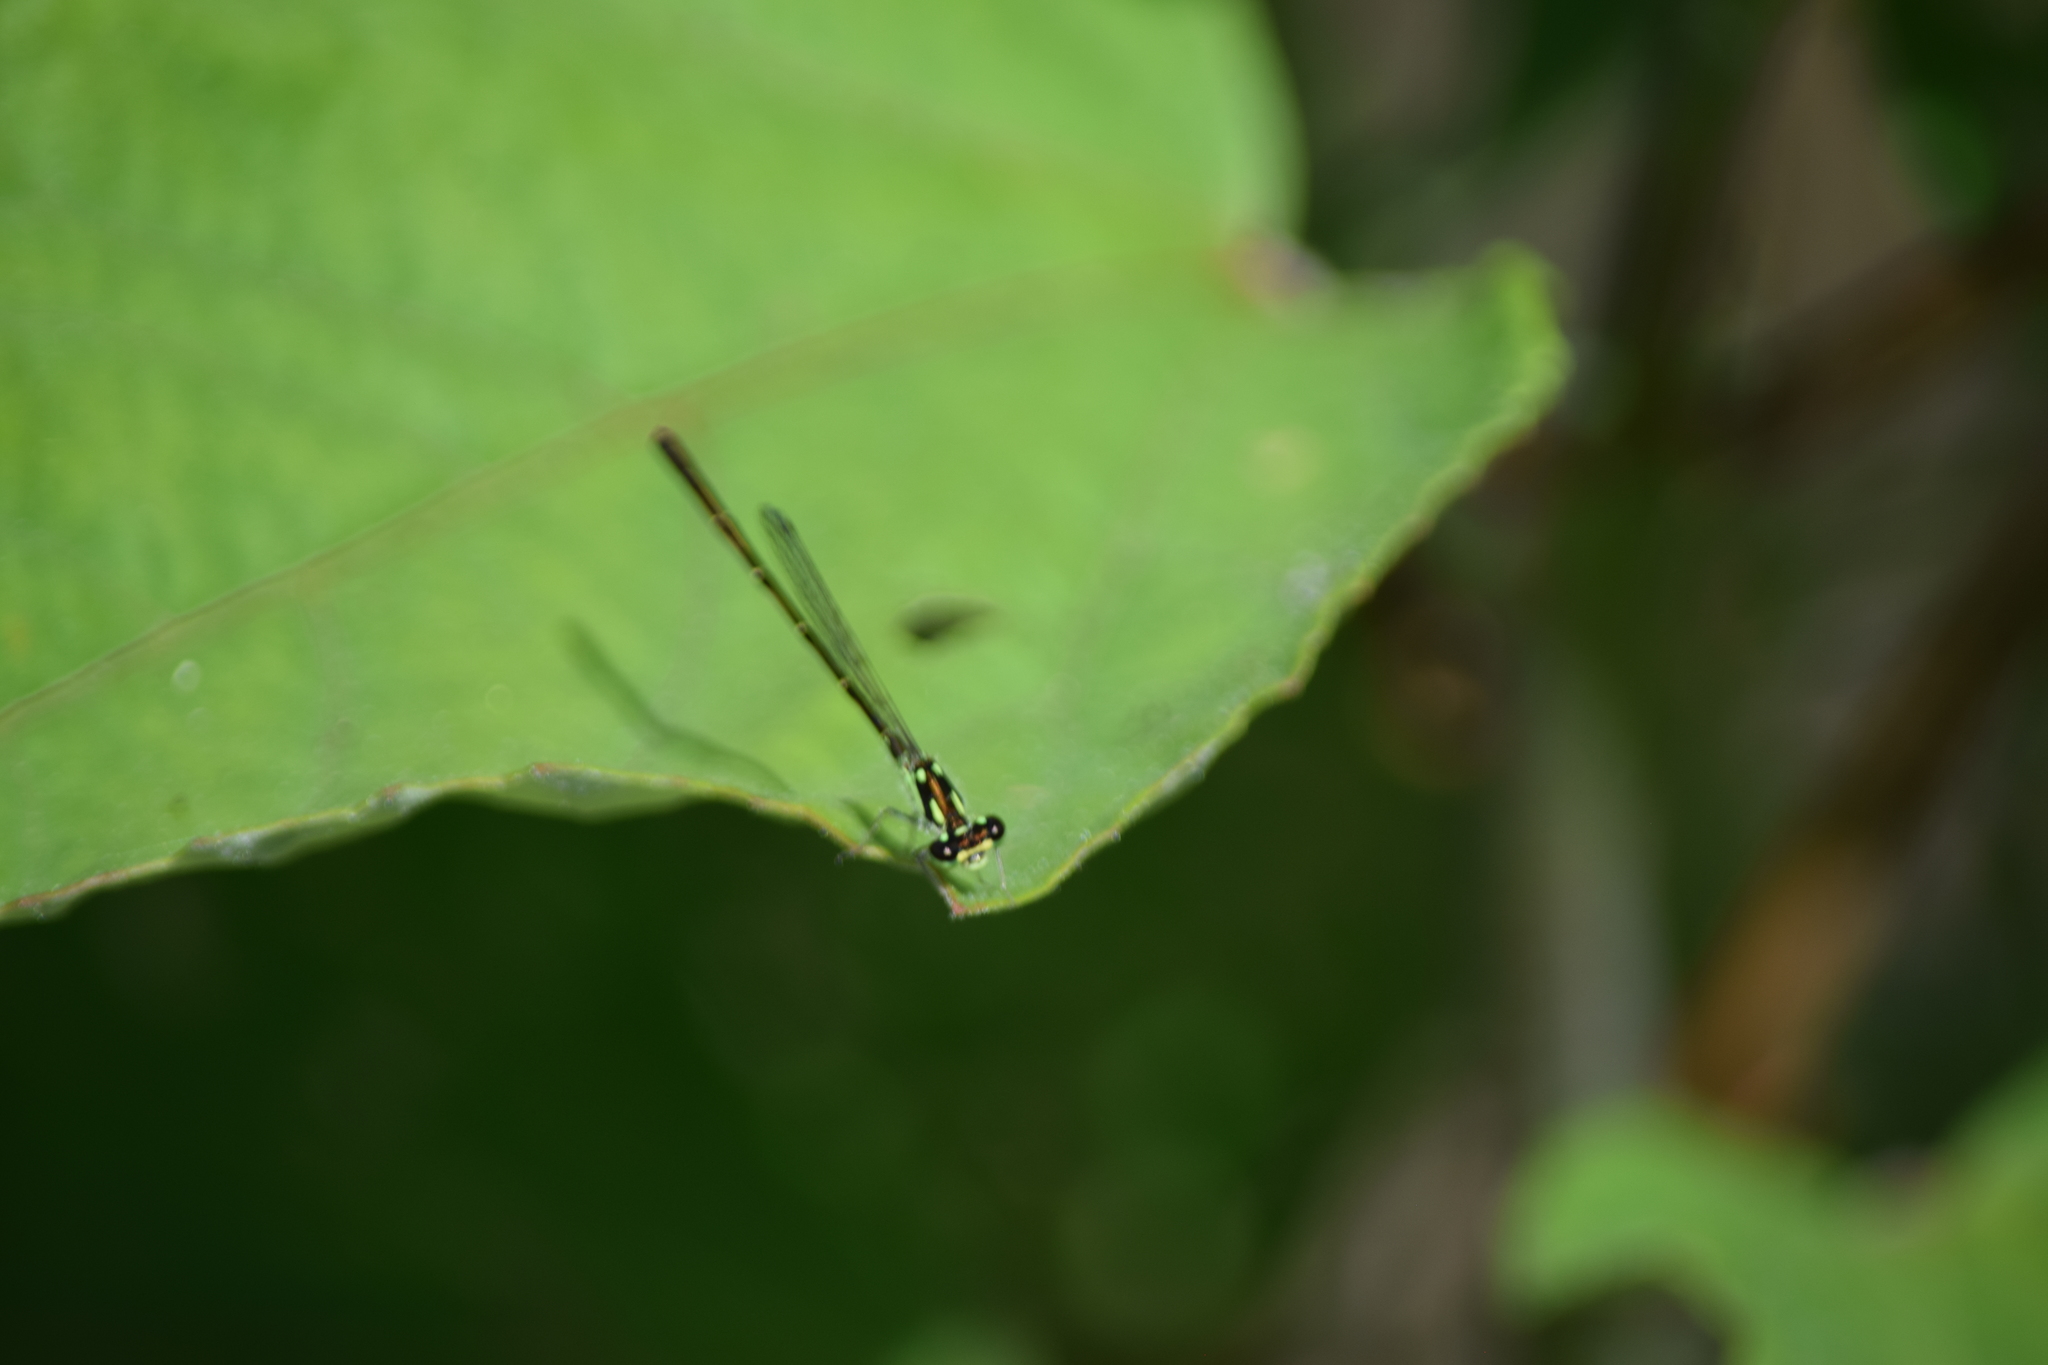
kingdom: Animalia
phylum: Arthropoda
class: Insecta
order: Odonata
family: Coenagrionidae
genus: Ischnura
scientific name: Ischnura posita
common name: Fragile forktail
